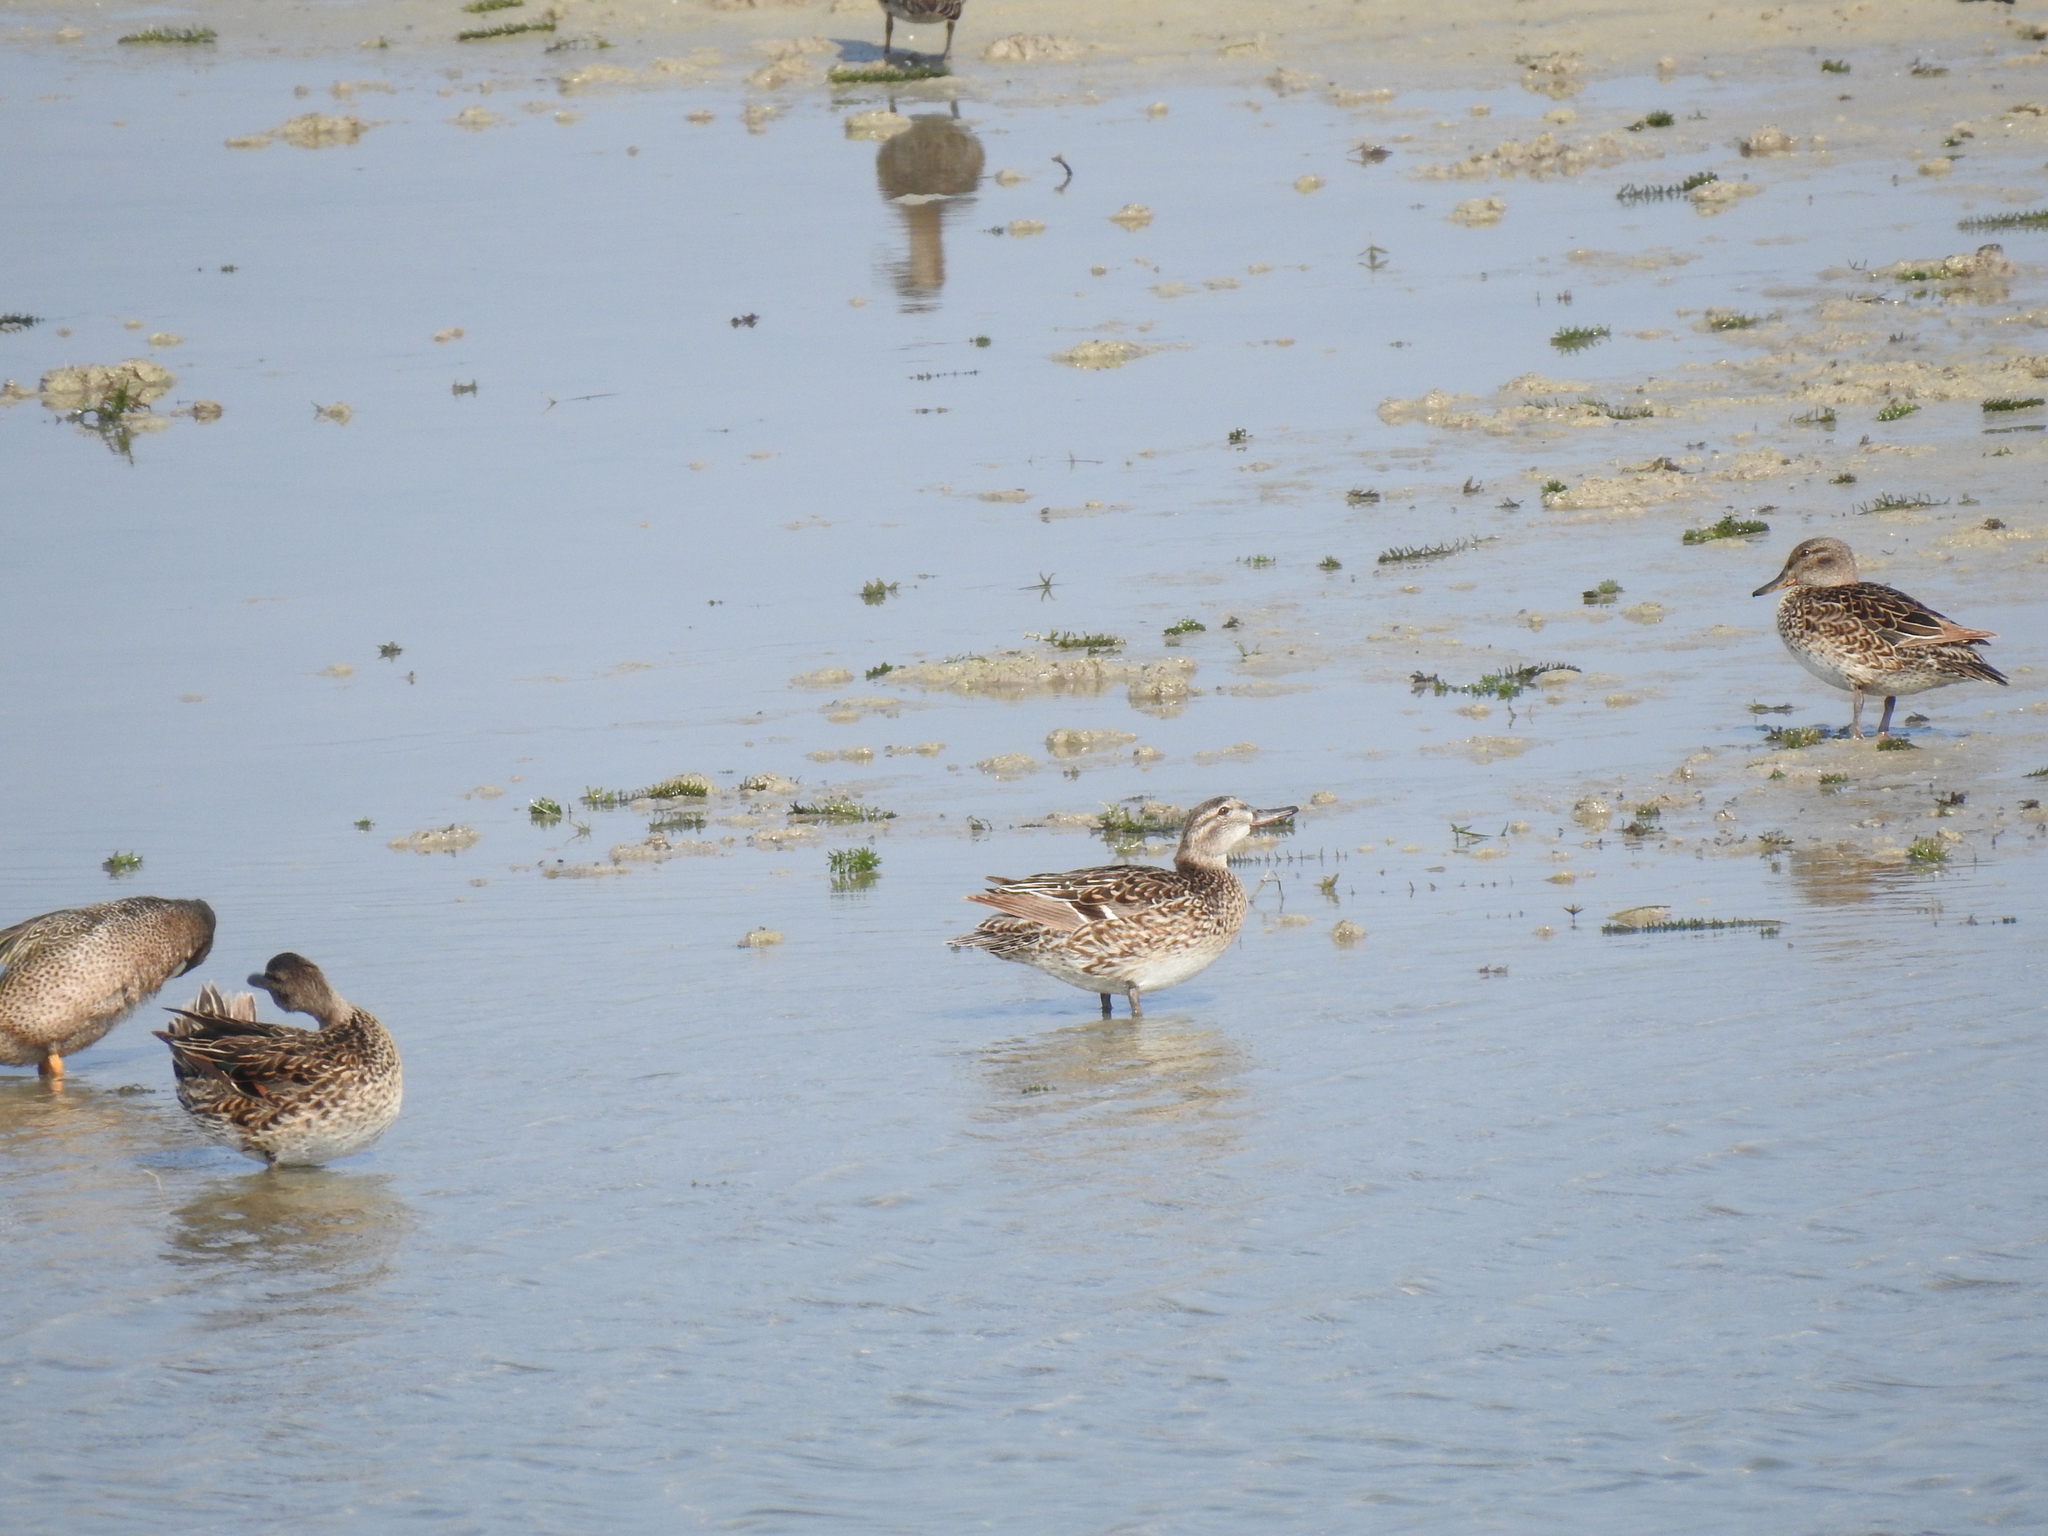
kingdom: Animalia
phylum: Chordata
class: Aves
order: Anseriformes
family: Anatidae
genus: Spatula
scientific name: Spatula discors
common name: Blue-winged teal
